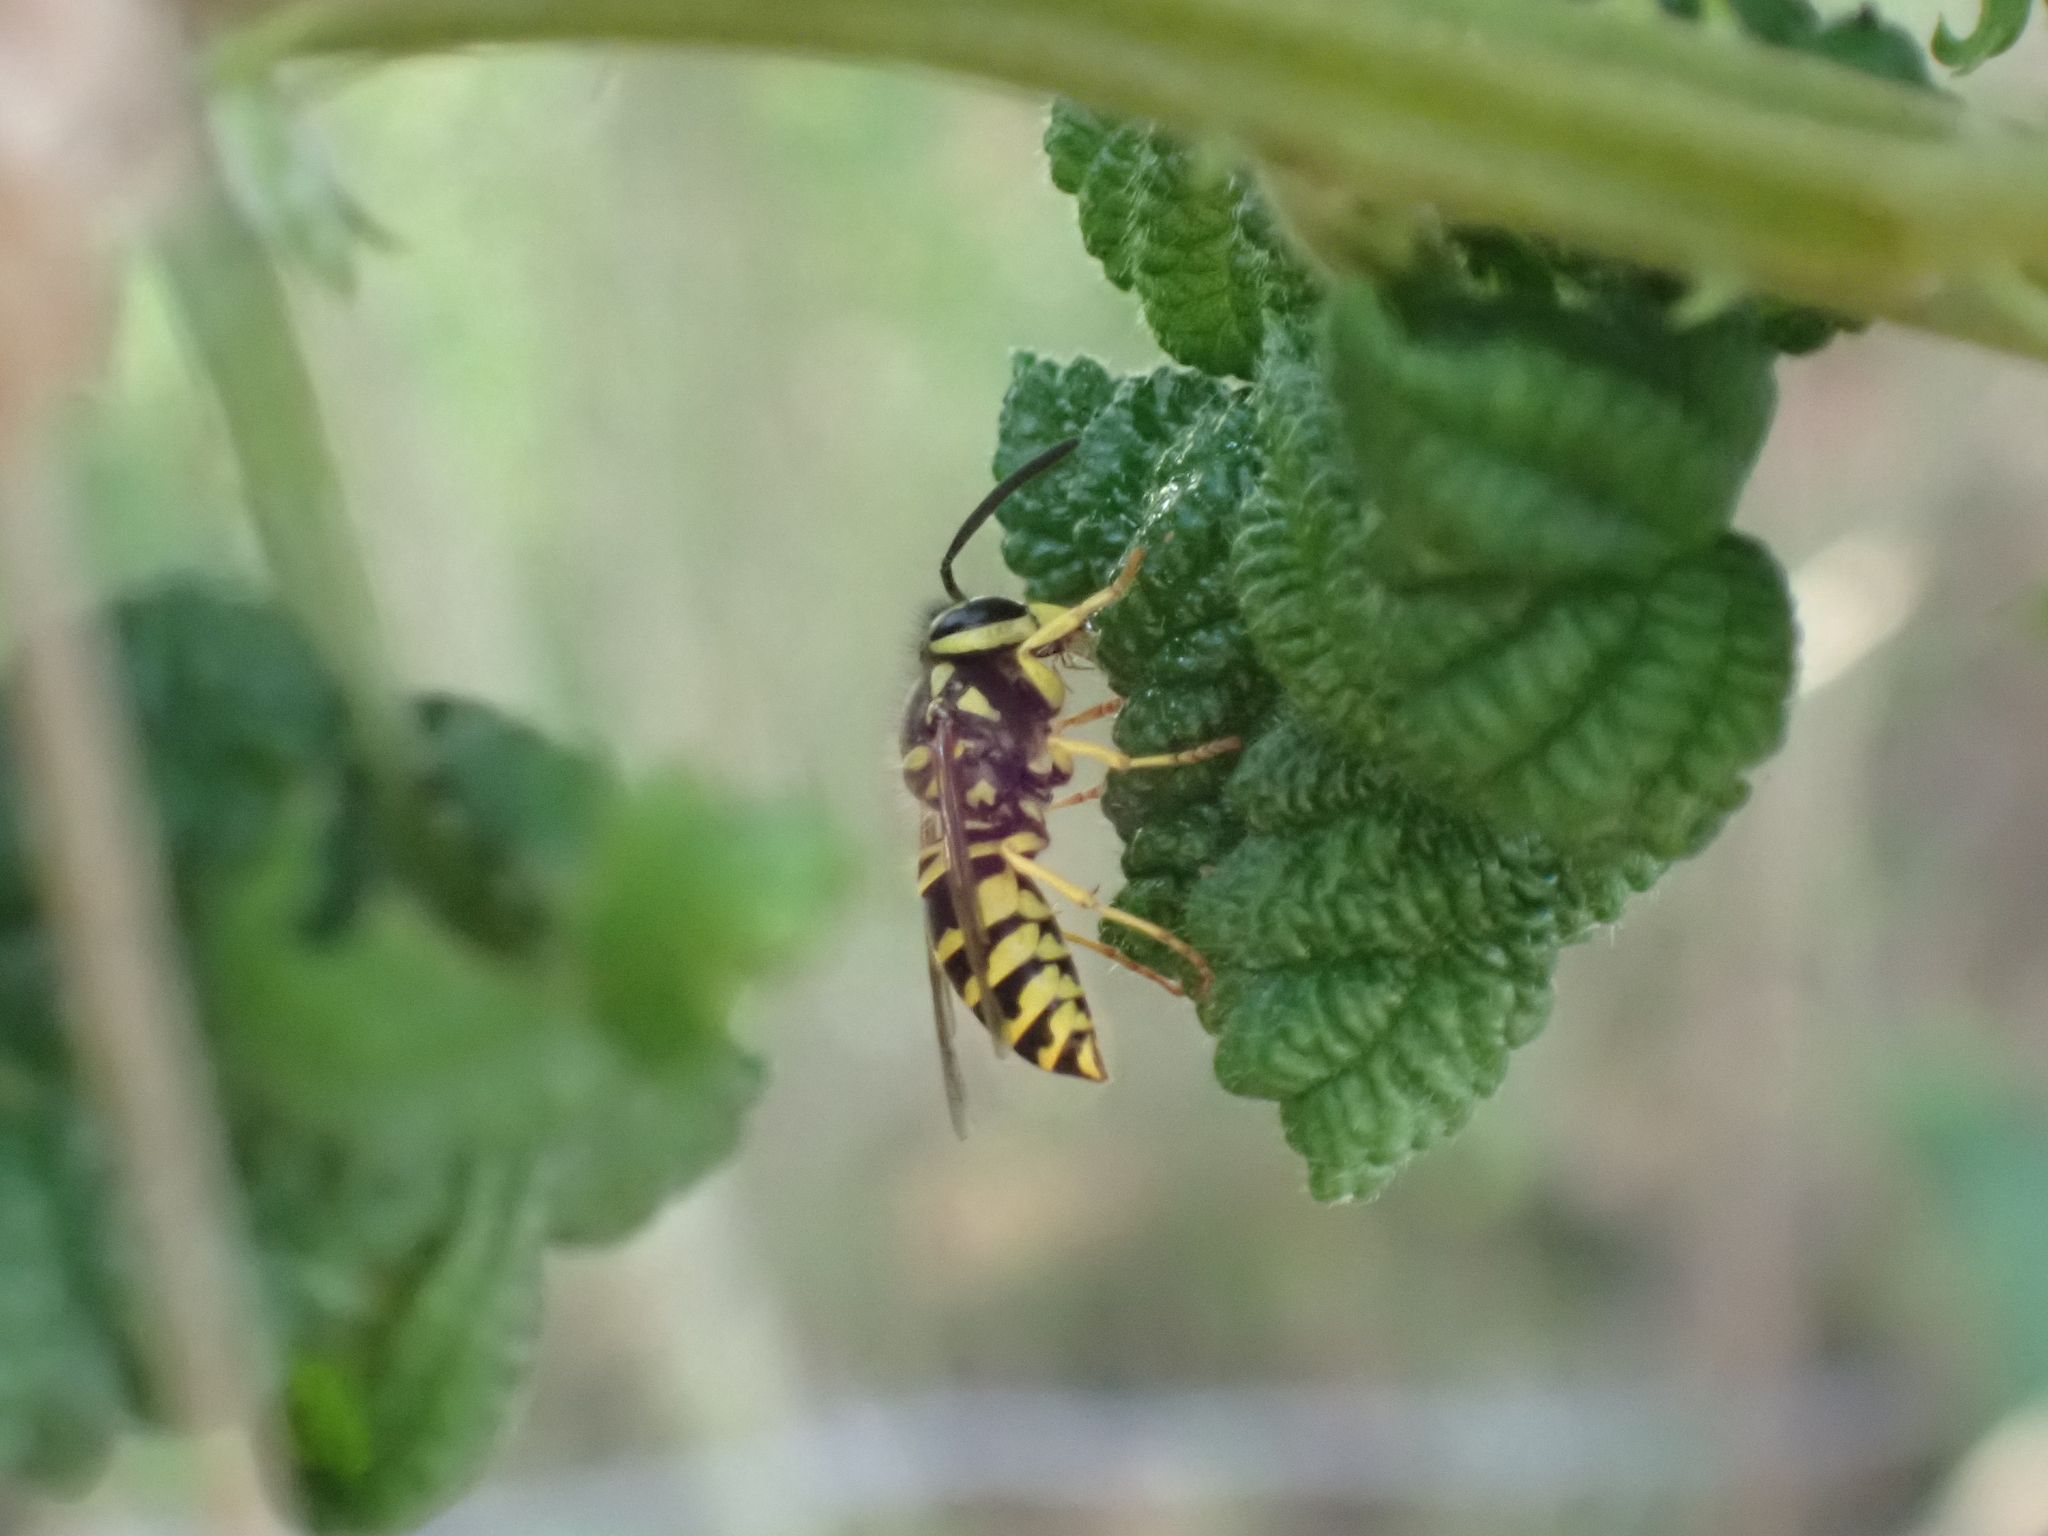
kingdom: Animalia
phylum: Arthropoda
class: Insecta
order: Hymenoptera
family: Vespidae
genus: Vespula
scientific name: Vespula maculifrons
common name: Eastern yellowjacket
